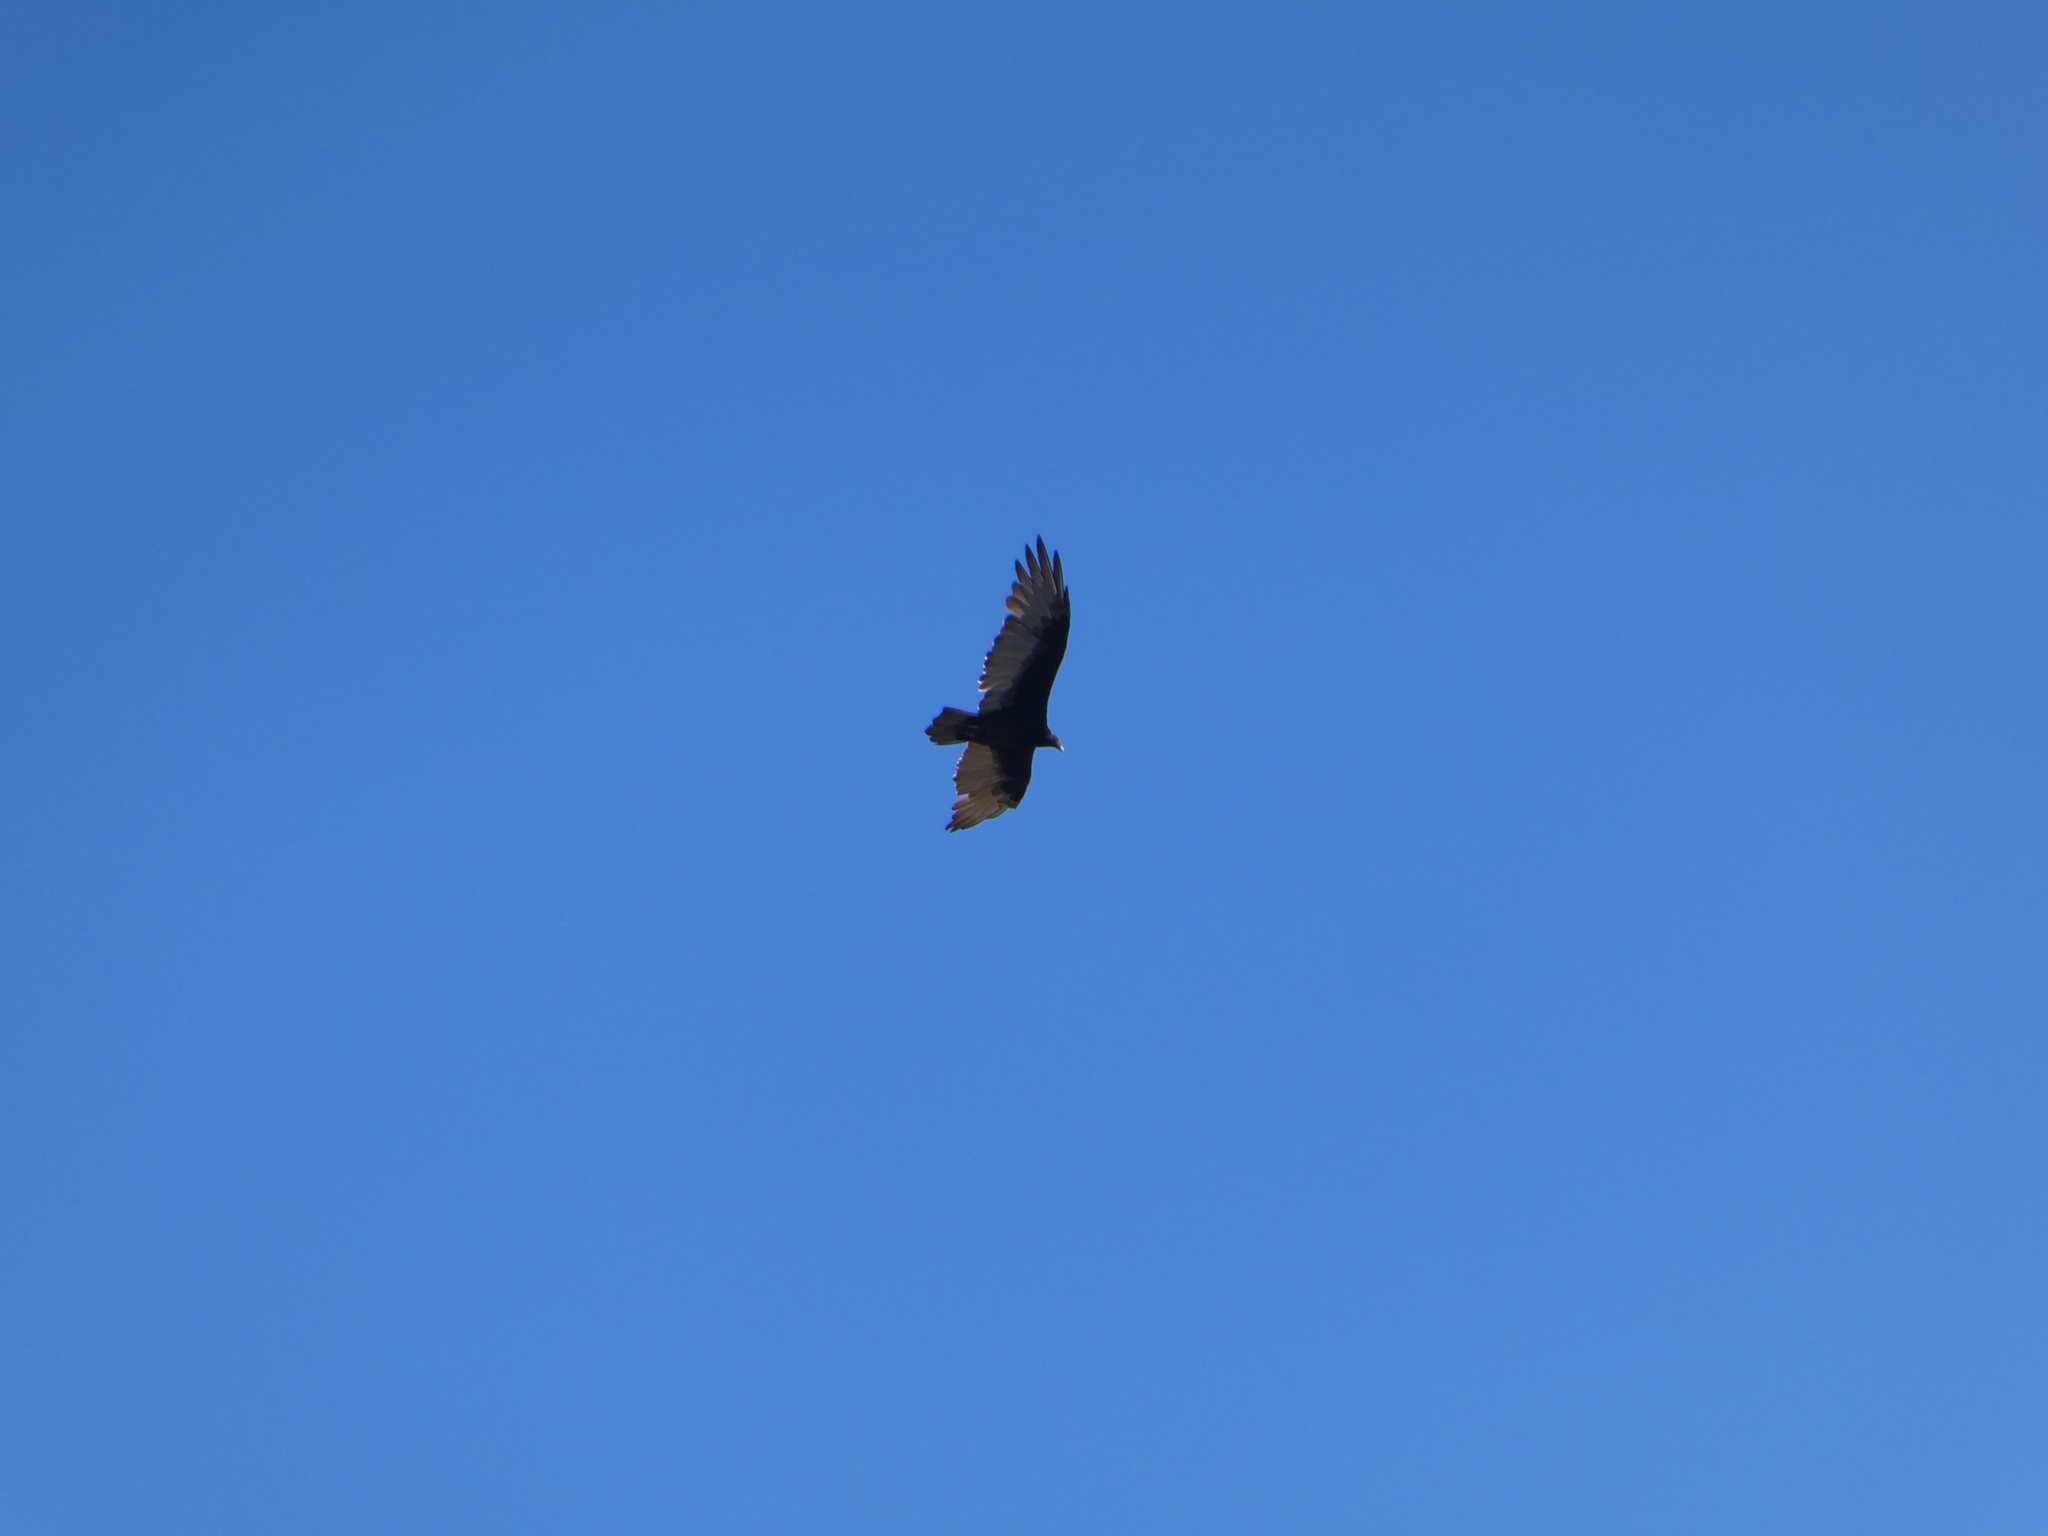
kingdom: Animalia
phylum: Chordata
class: Aves
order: Accipitriformes
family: Cathartidae
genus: Cathartes
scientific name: Cathartes aura
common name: Turkey vulture
